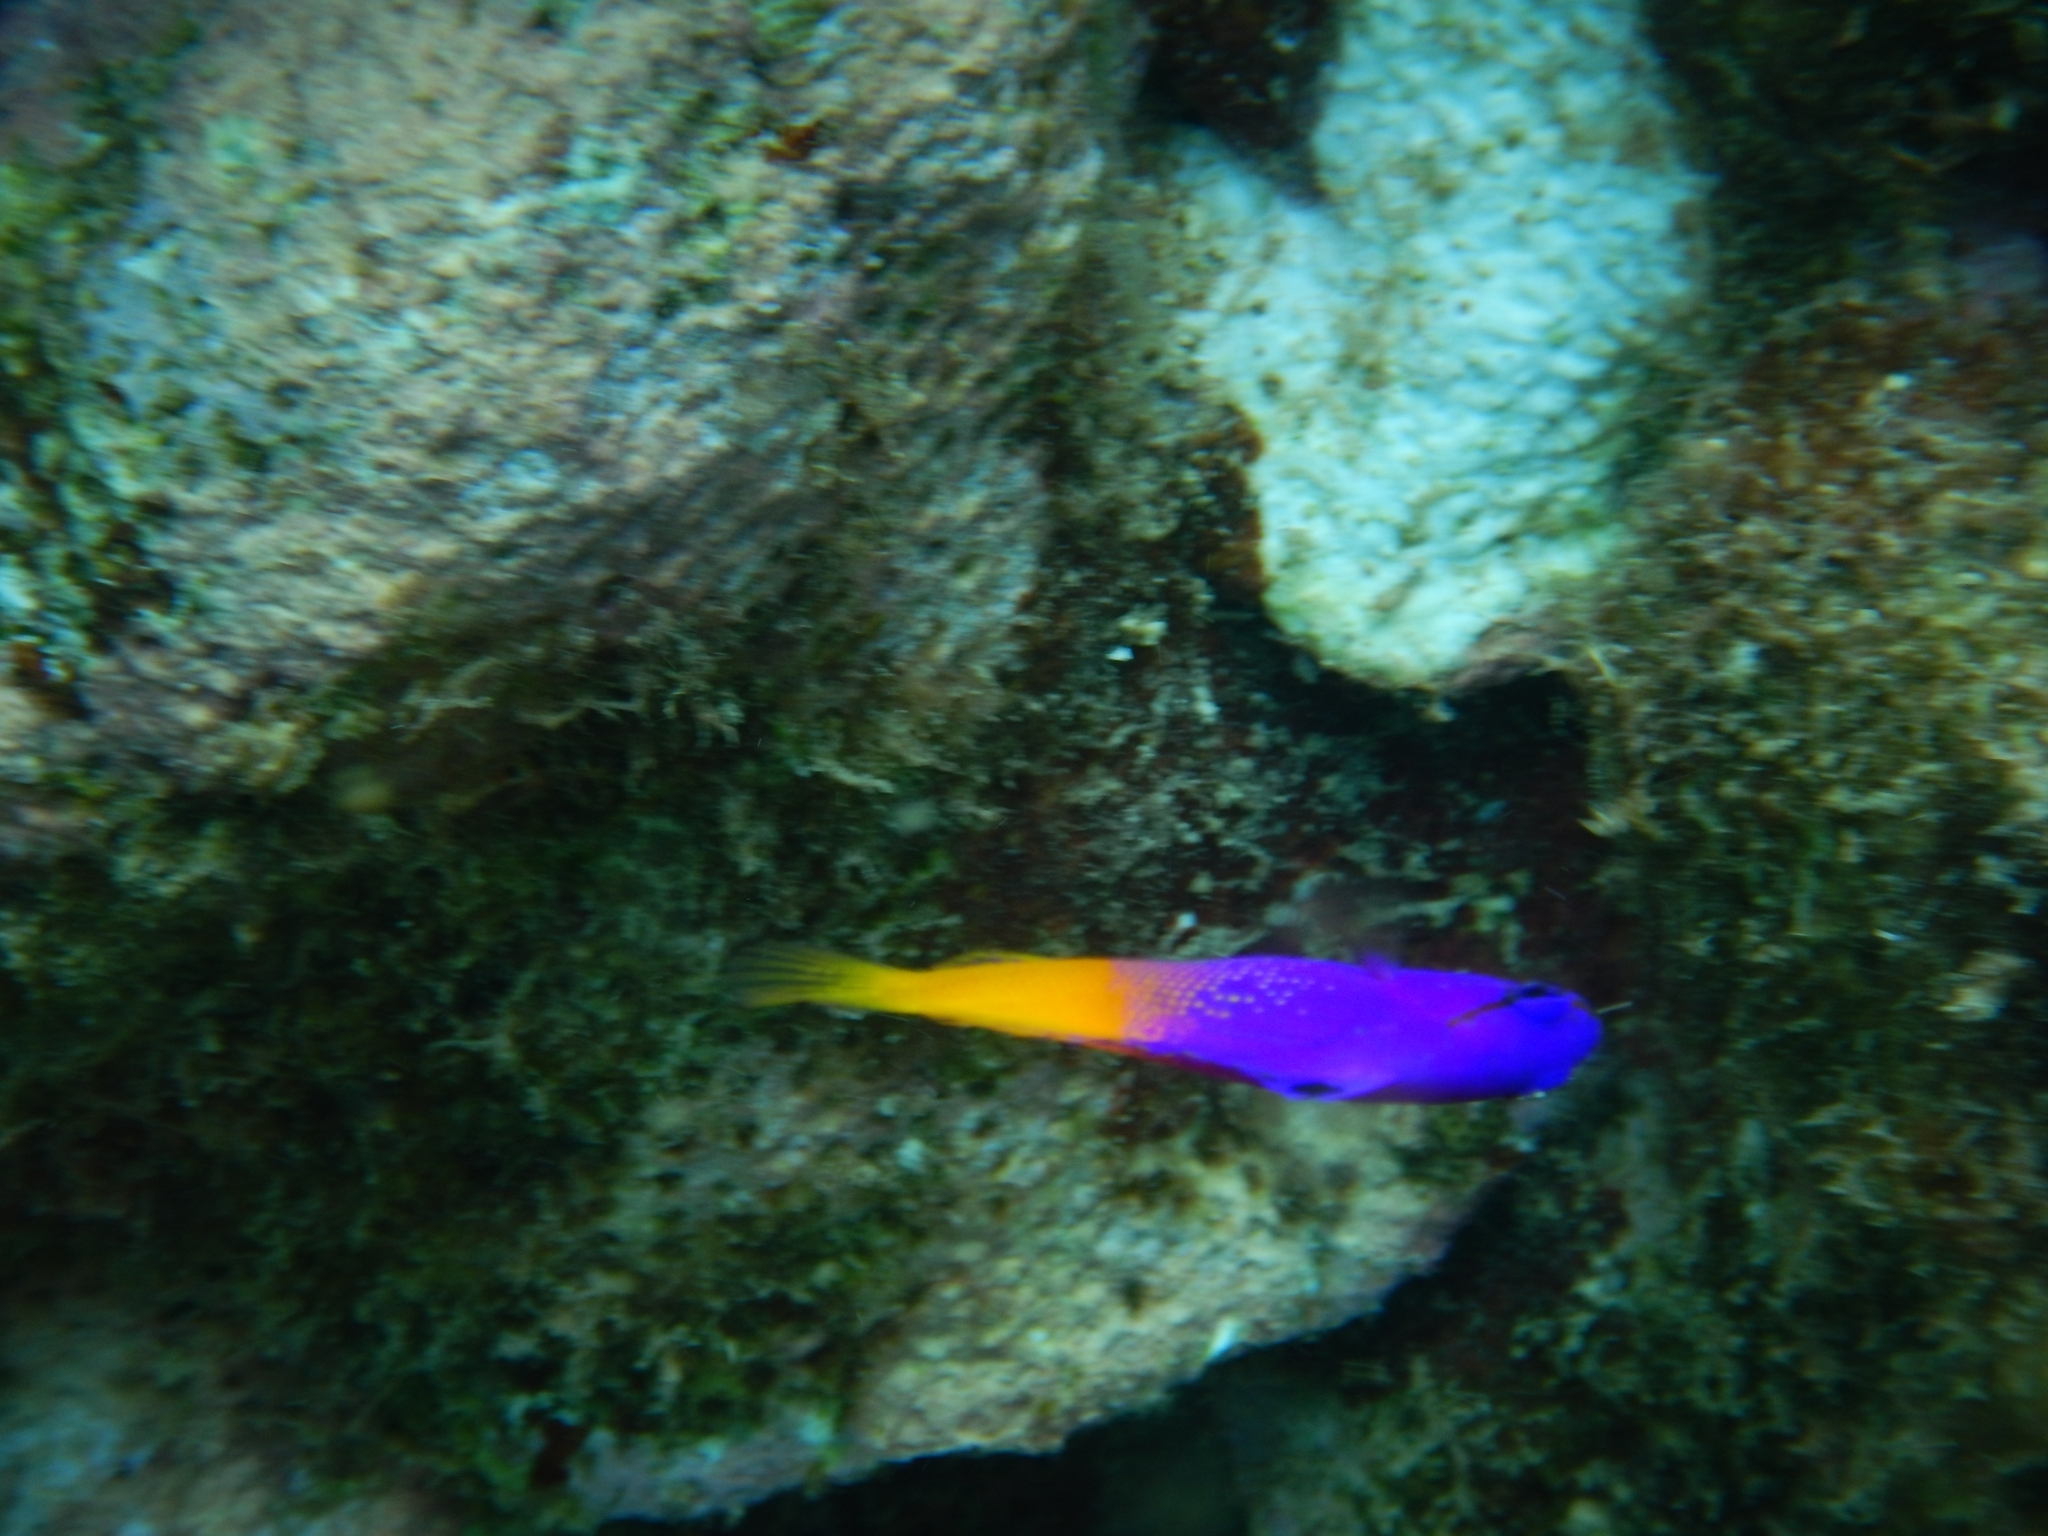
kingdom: Animalia
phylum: Chordata
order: Perciformes
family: Grammatidae
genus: Gramma
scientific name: Gramma loreto
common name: Fairy basslet
